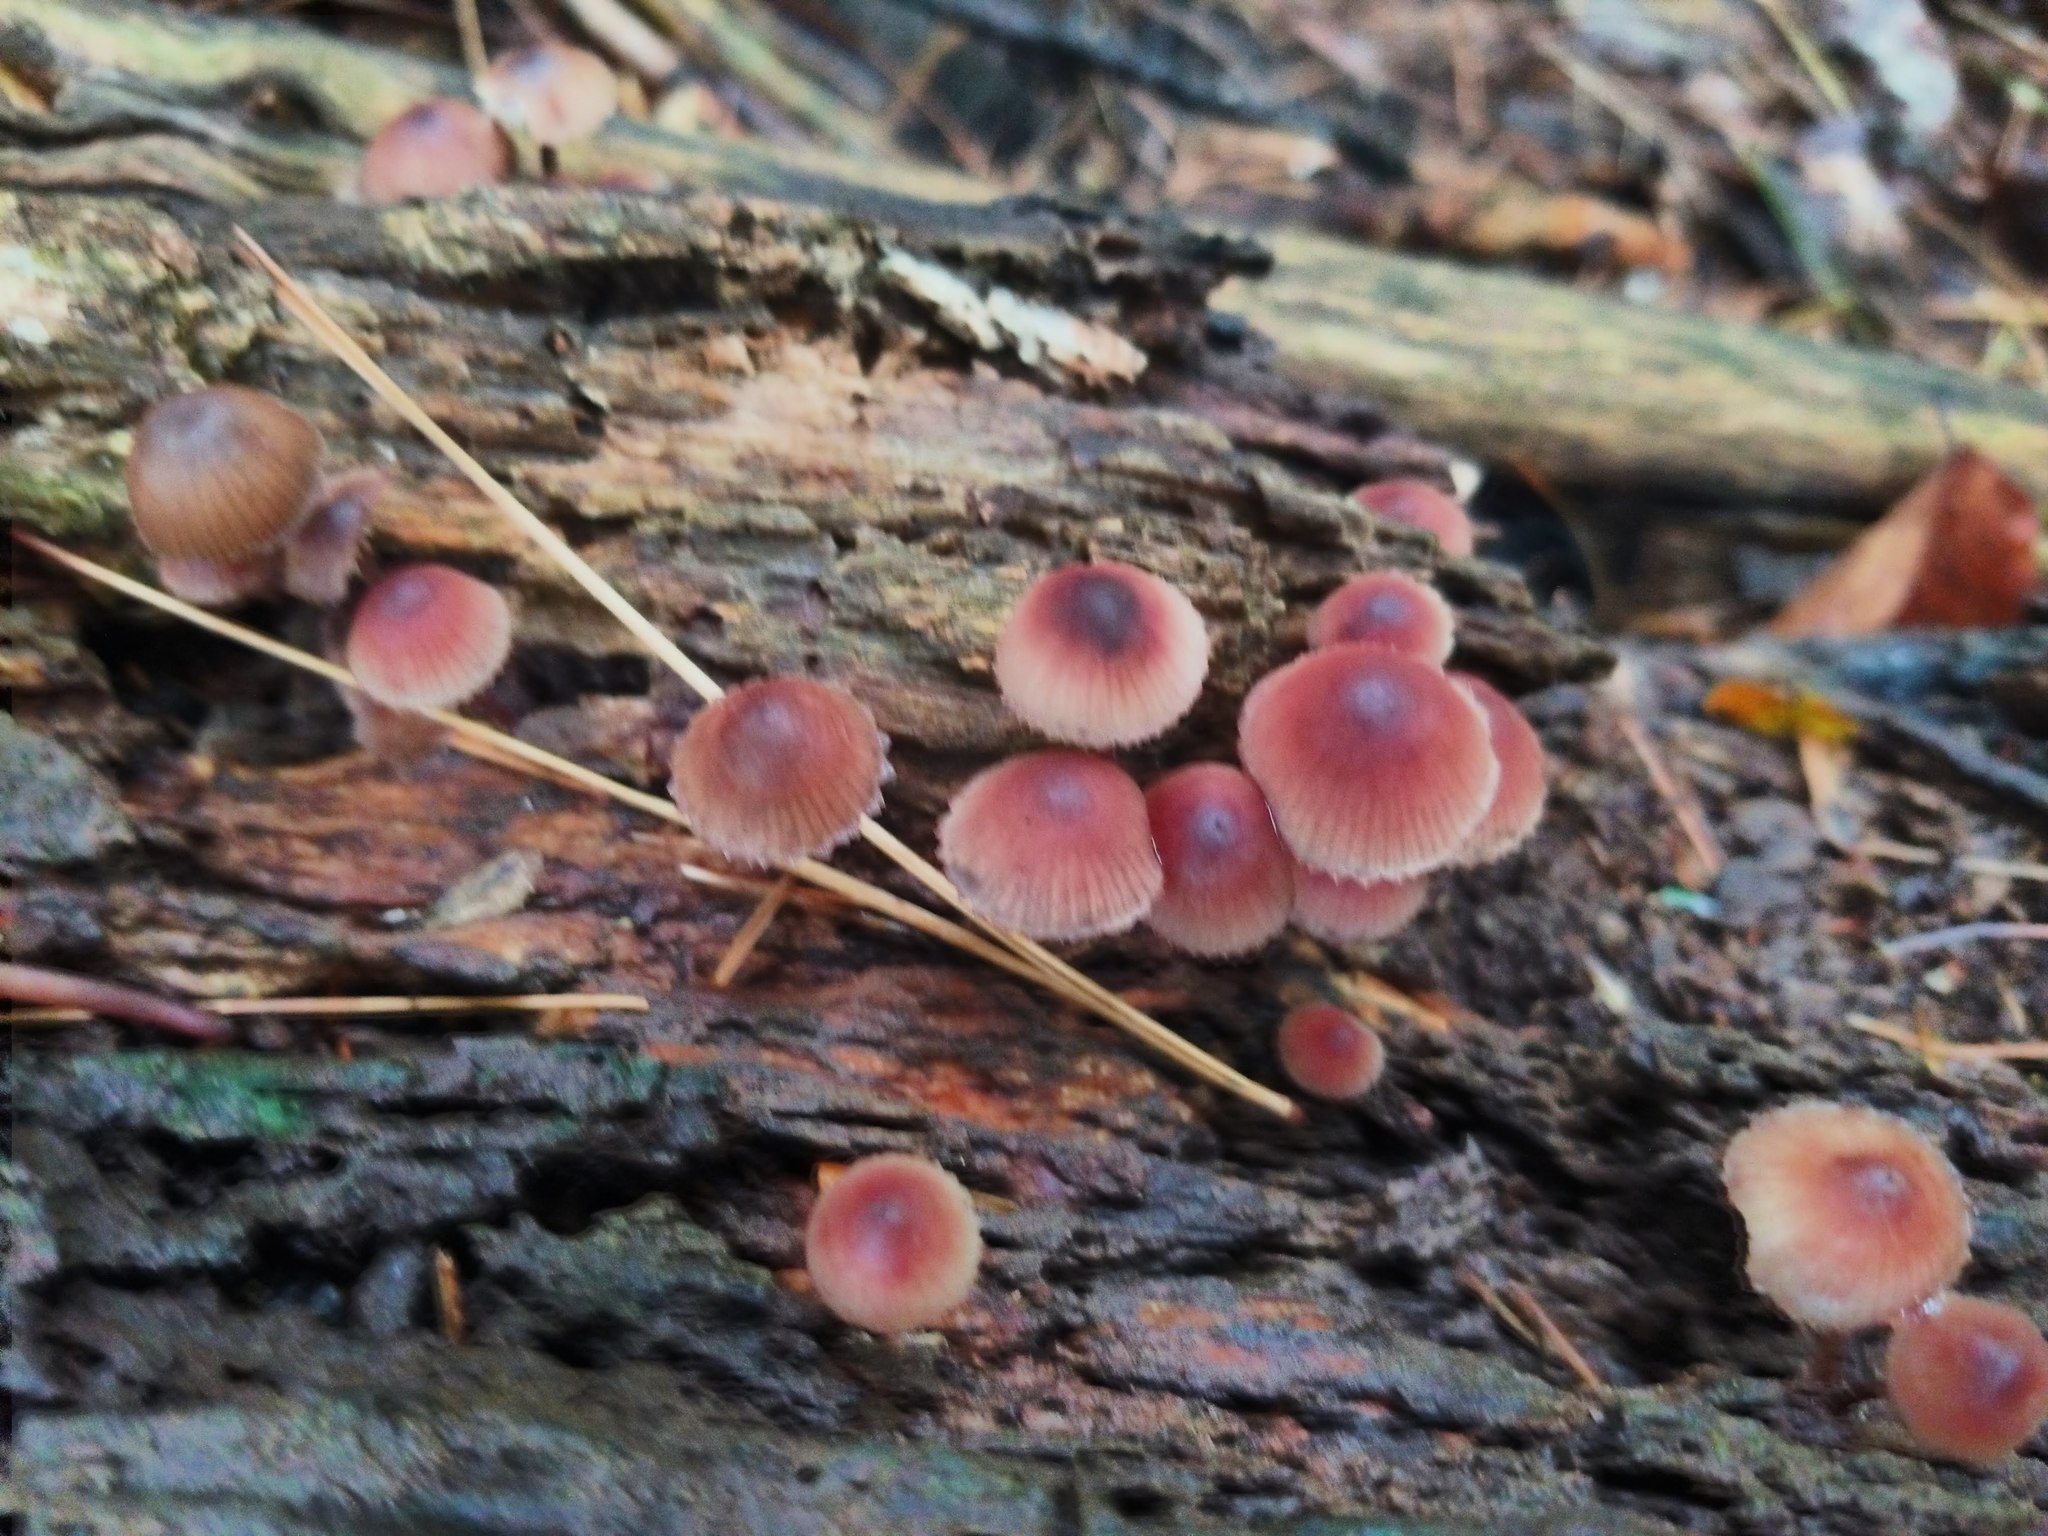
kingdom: Fungi
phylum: Basidiomycota
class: Agaricomycetes
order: Agaricales
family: Mycenaceae
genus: Mycena
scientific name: Mycena haematopus
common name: Burgundydrop bonnet
